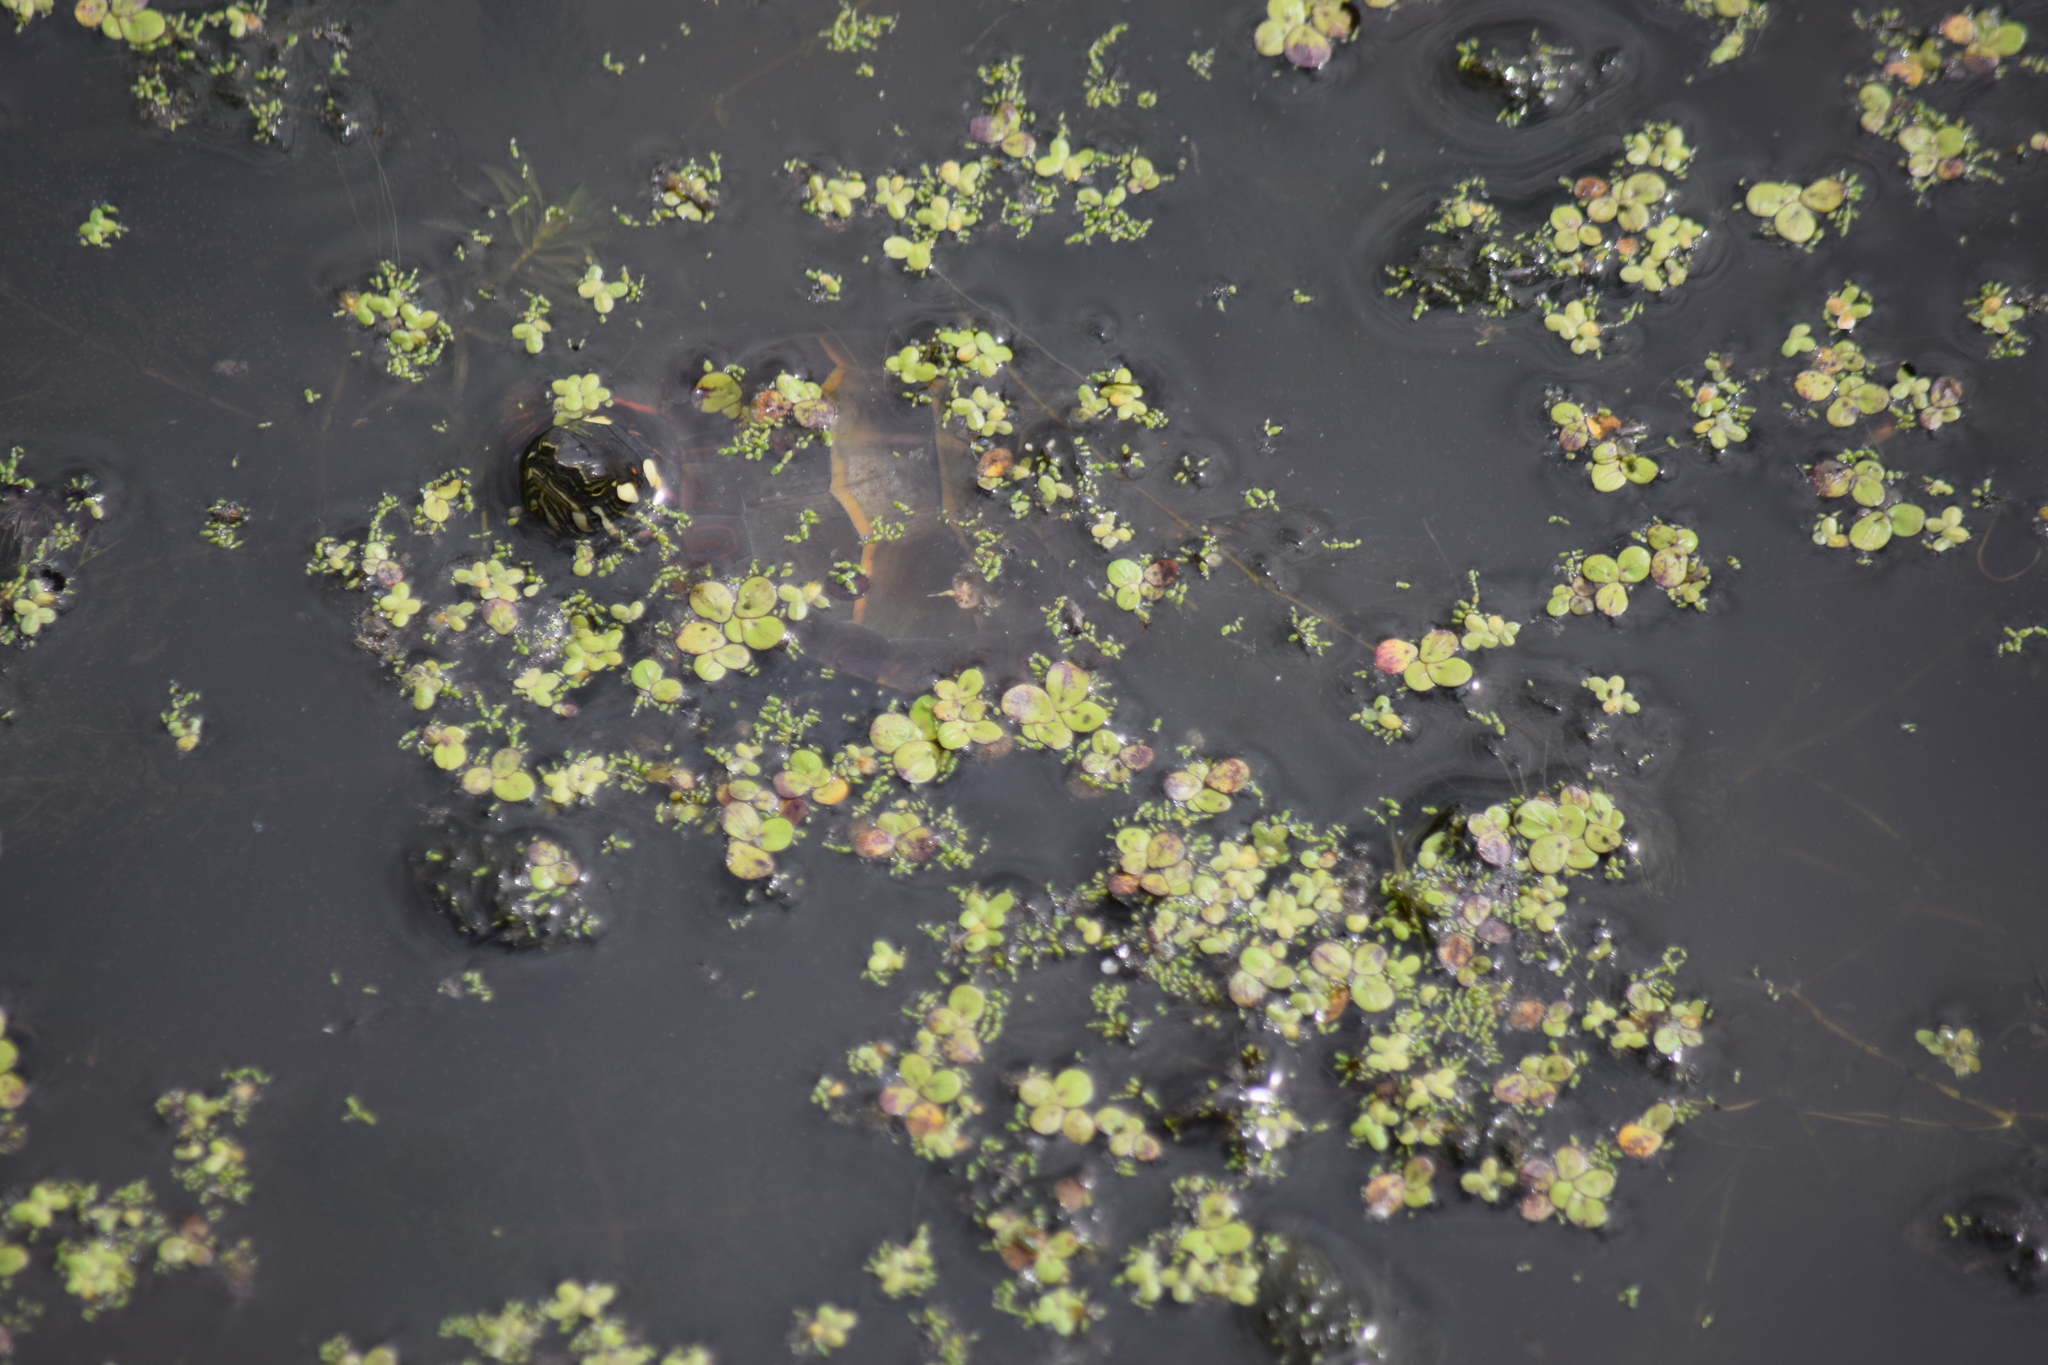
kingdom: Animalia
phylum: Chordata
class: Testudines
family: Emydidae
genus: Chrysemys
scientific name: Chrysemys picta
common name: Painted turtle
